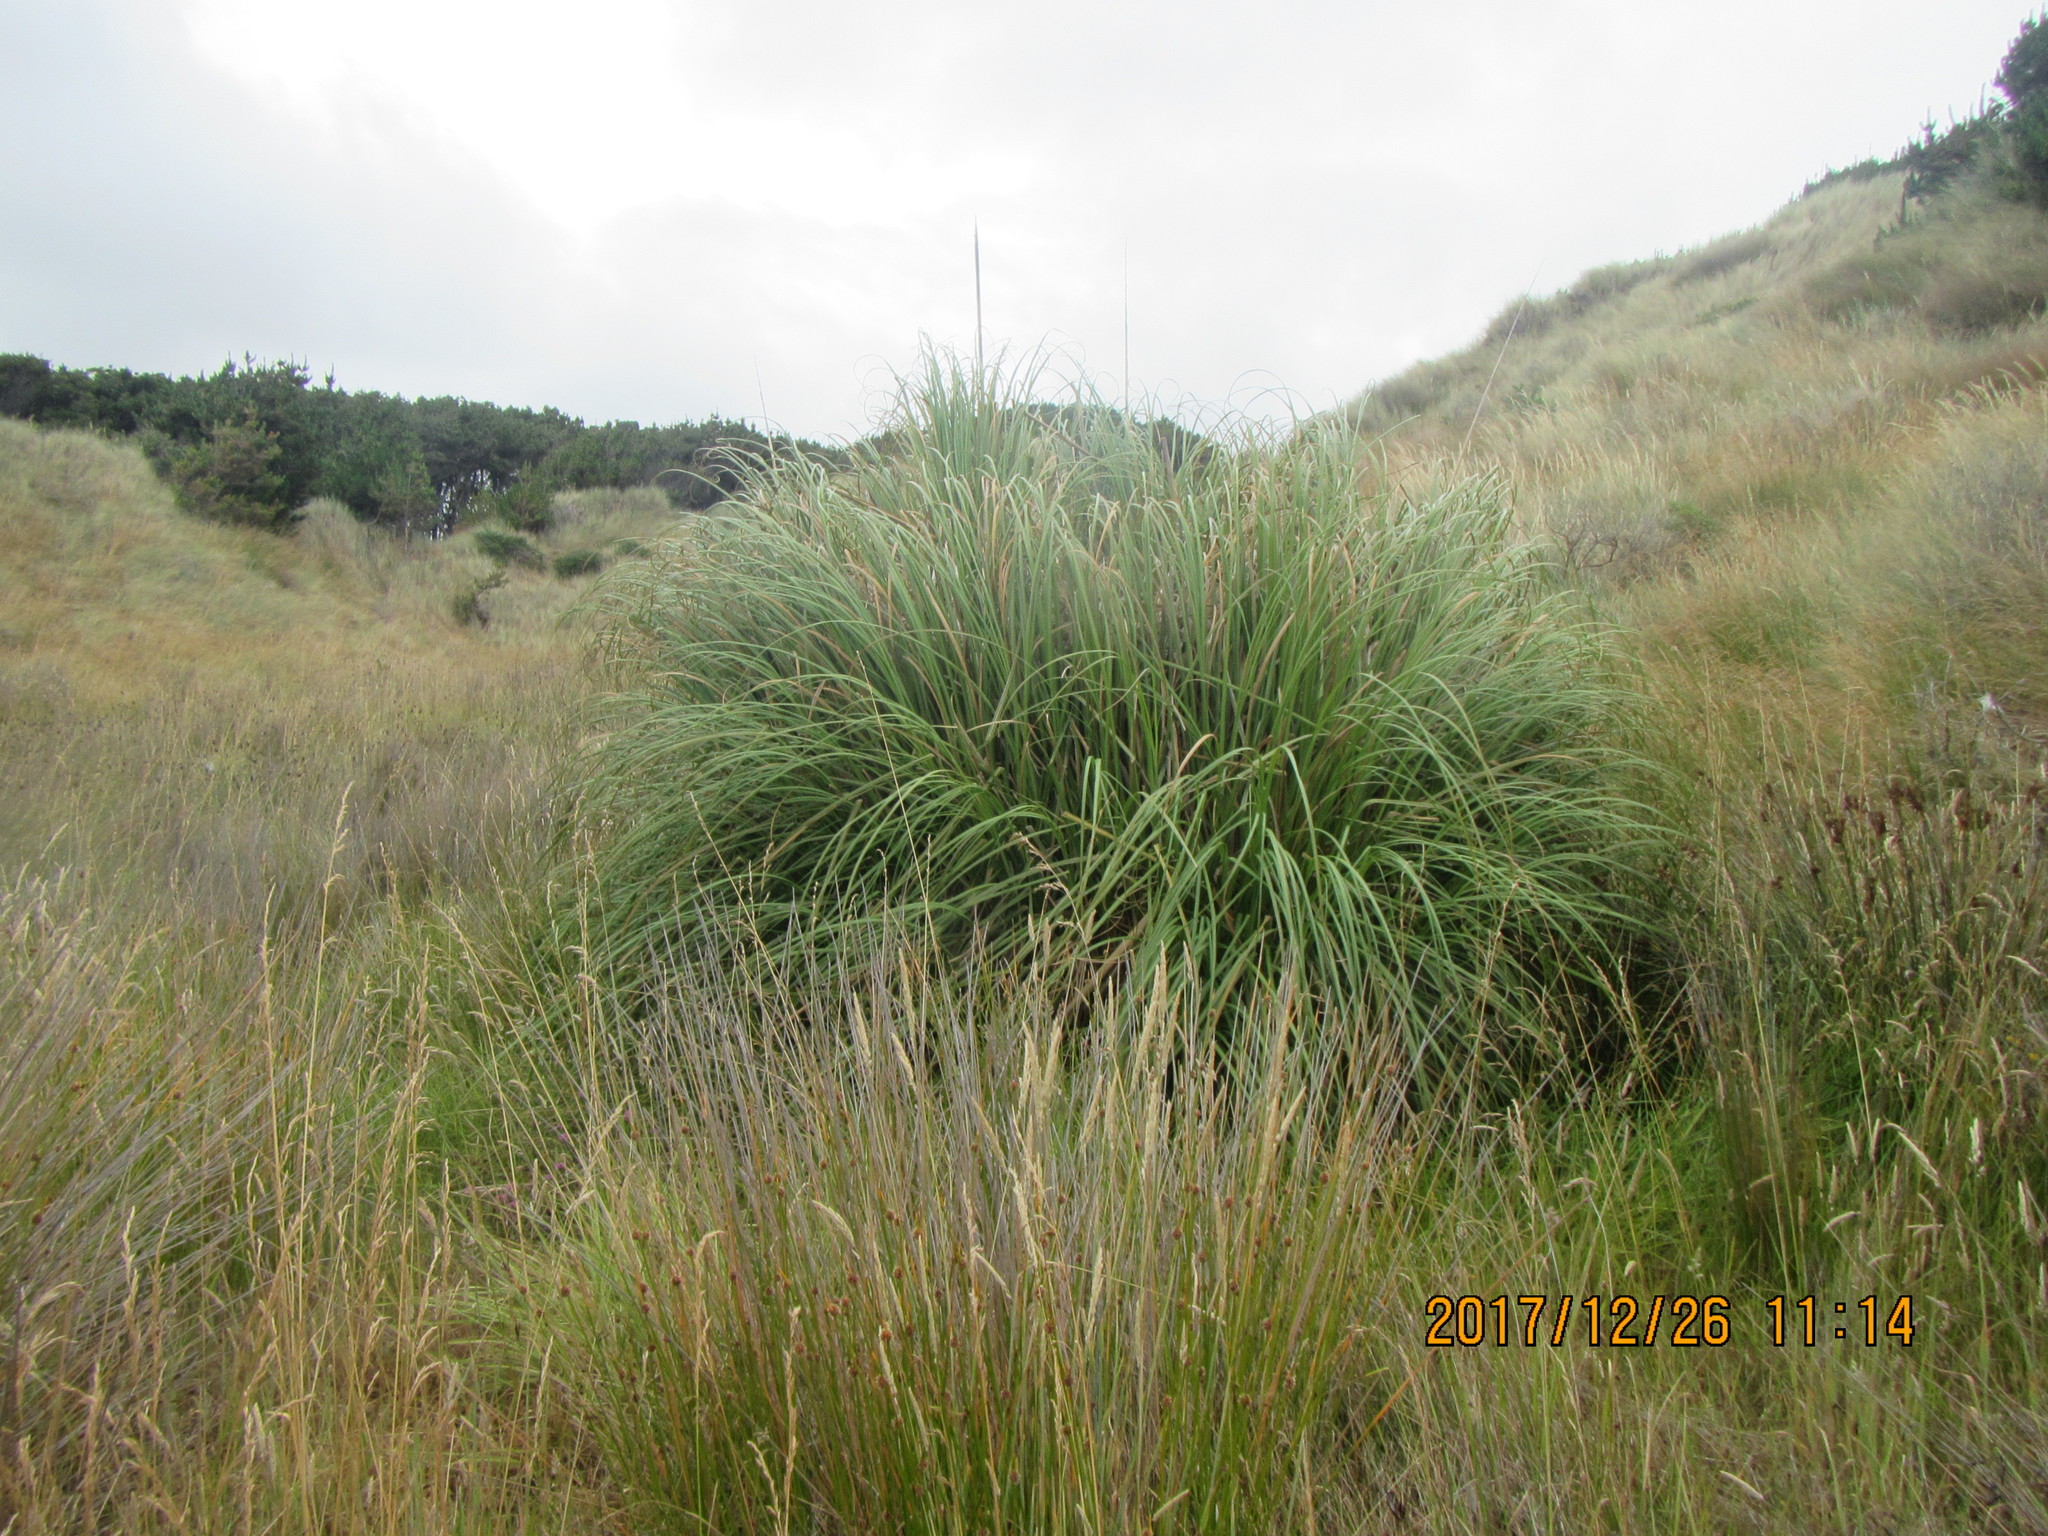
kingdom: Plantae
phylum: Tracheophyta
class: Liliopsida
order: Poales
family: Poaceae
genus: Cortaderia
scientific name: Cortaderia selloana
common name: Uruguayan pampas grass
